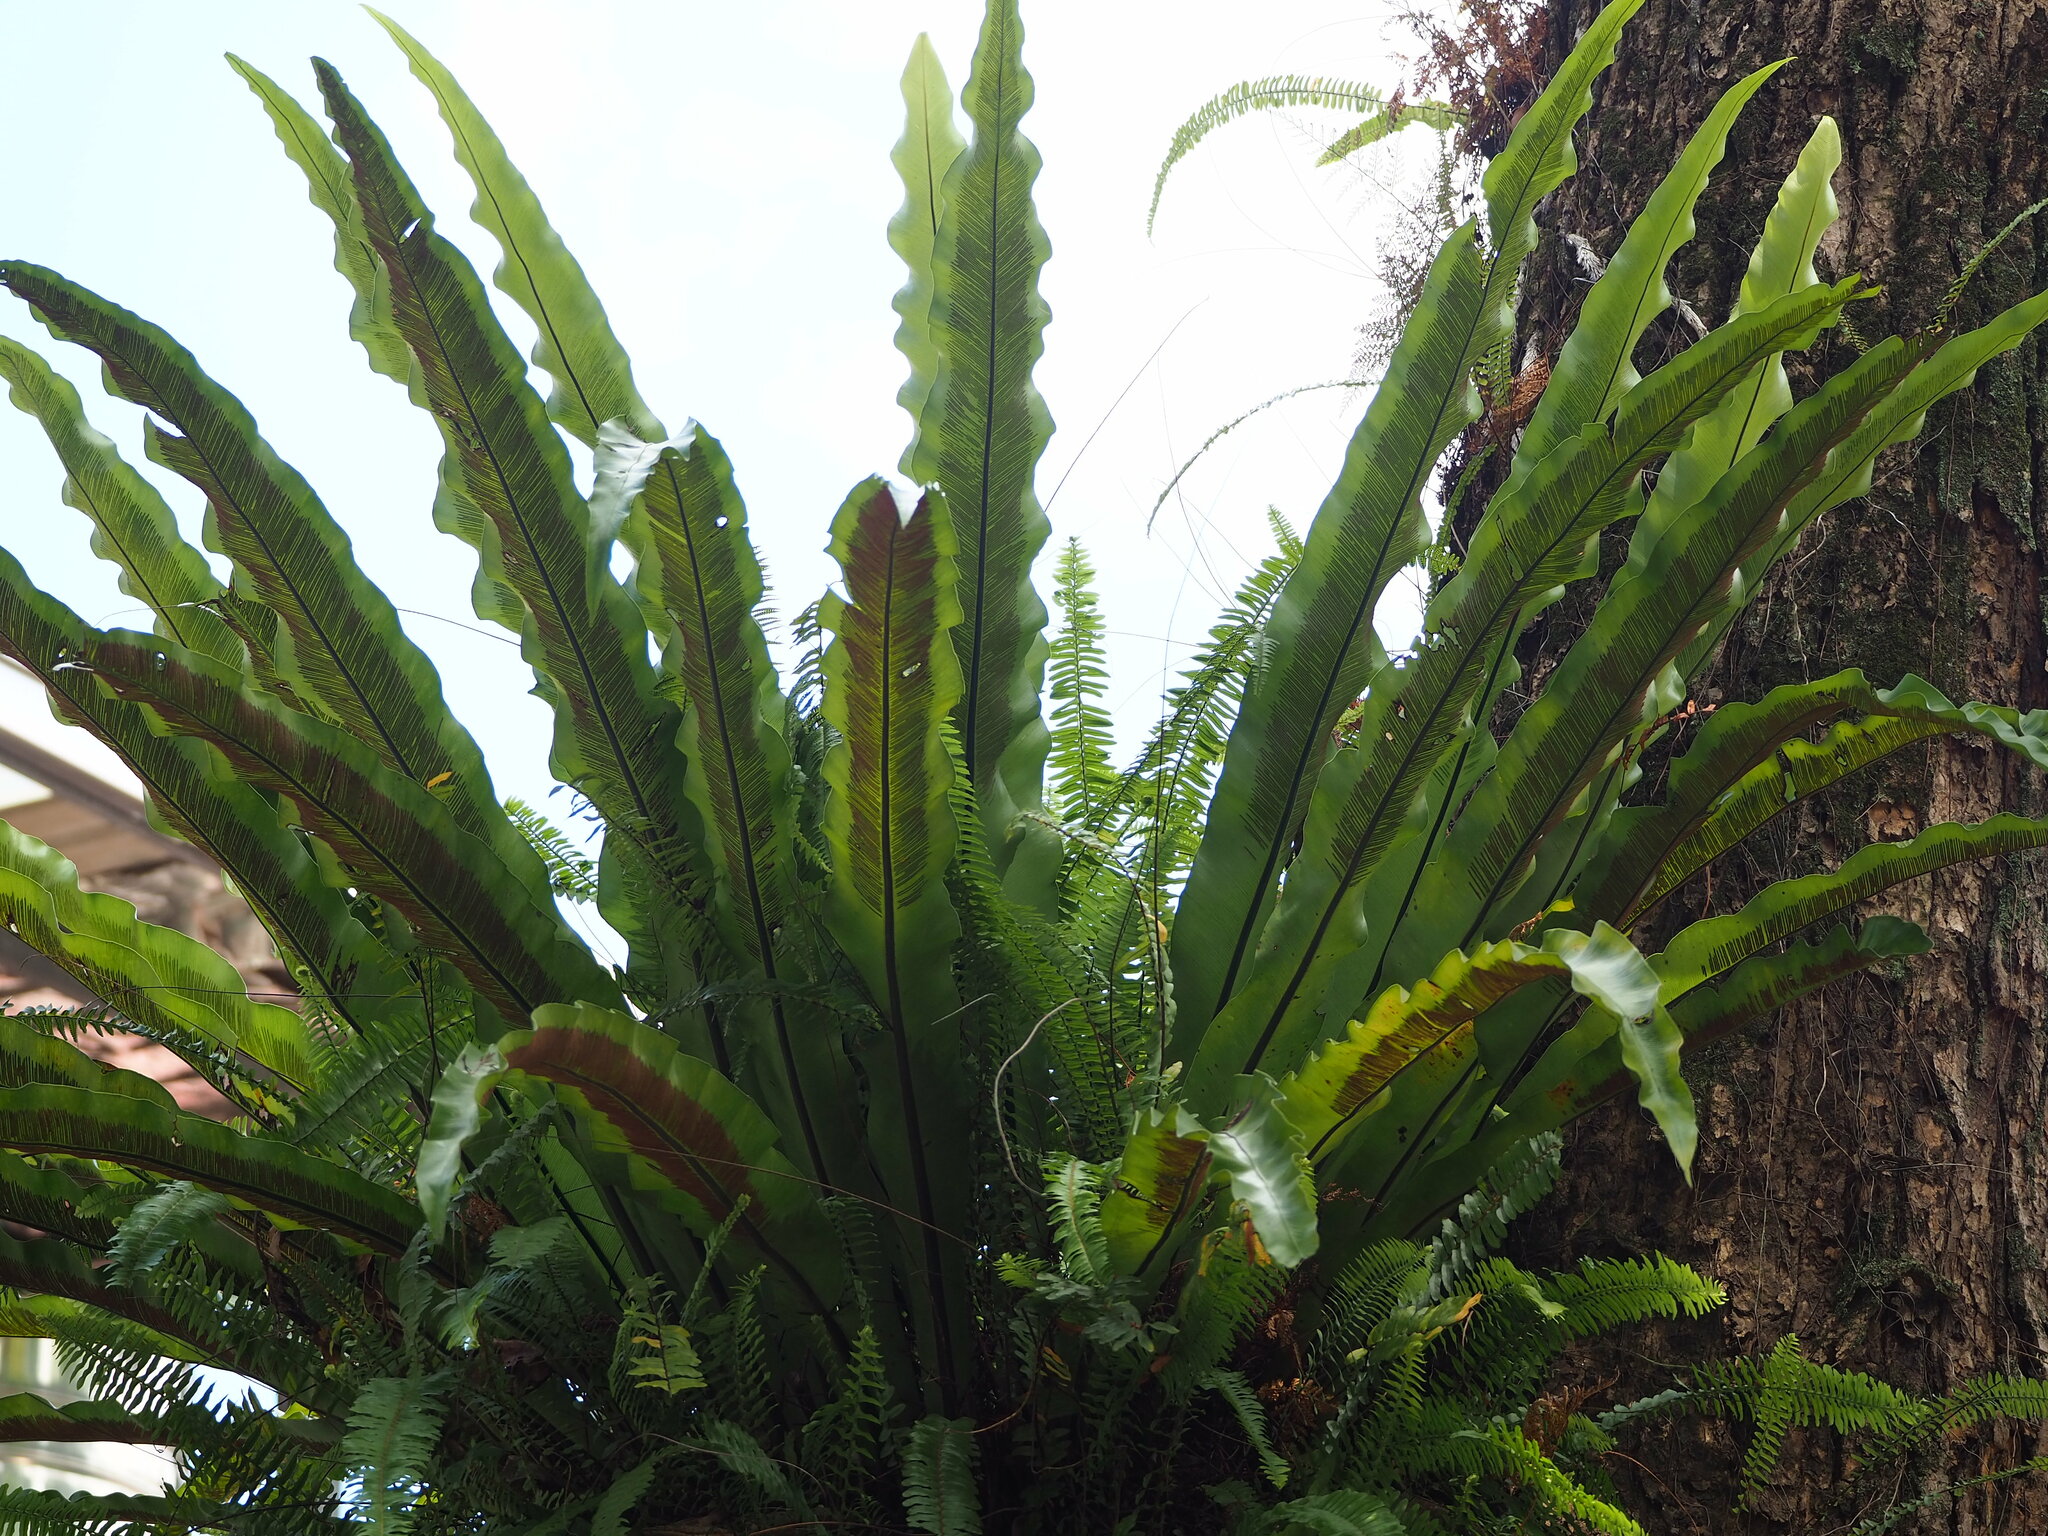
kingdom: Plantae
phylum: Tracheophyta
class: Polypodiopsida
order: Polypodiales
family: Aspleniaceae
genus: Asplenium
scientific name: Asplenium nidus
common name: Bird's-nest fern
